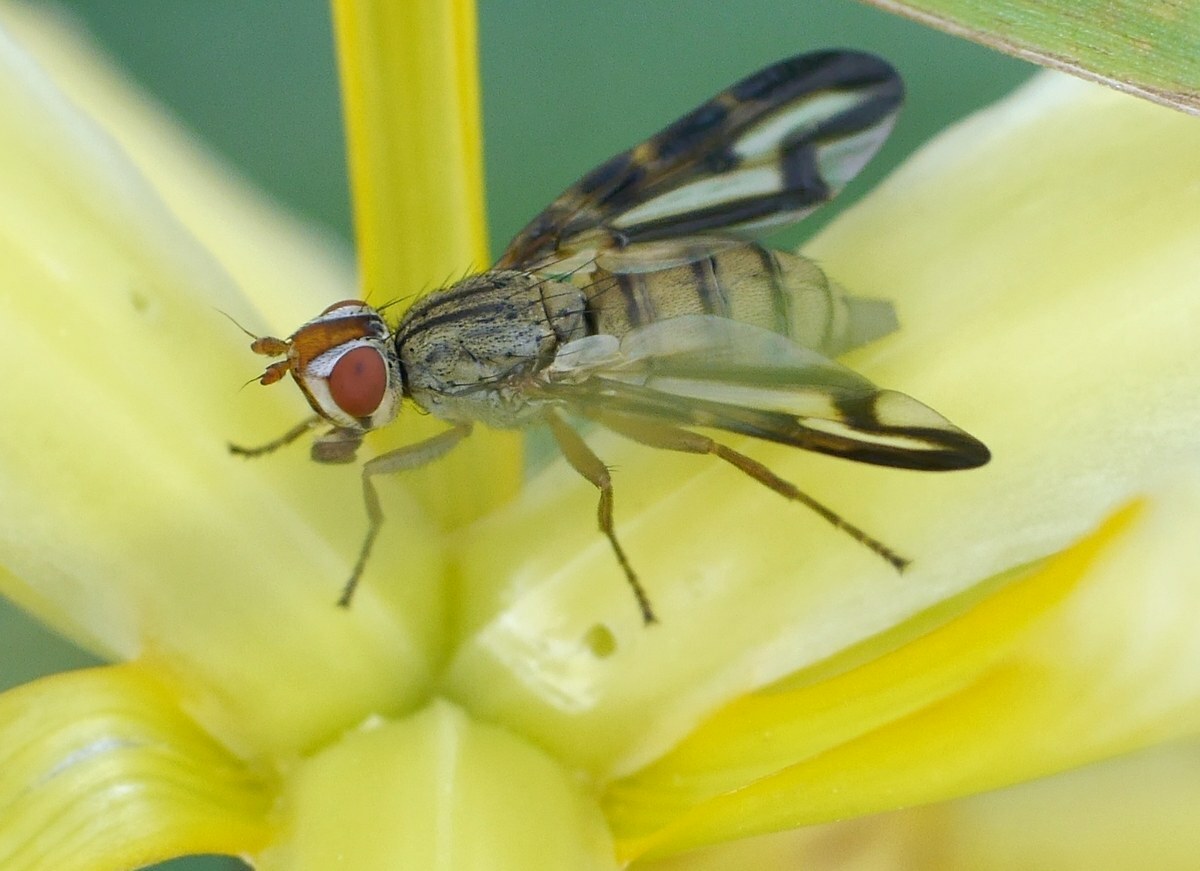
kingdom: Animalia
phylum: Arthropoda
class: Insecta
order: Diptera
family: Ulidiidae
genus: Otites
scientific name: Otites lamed
